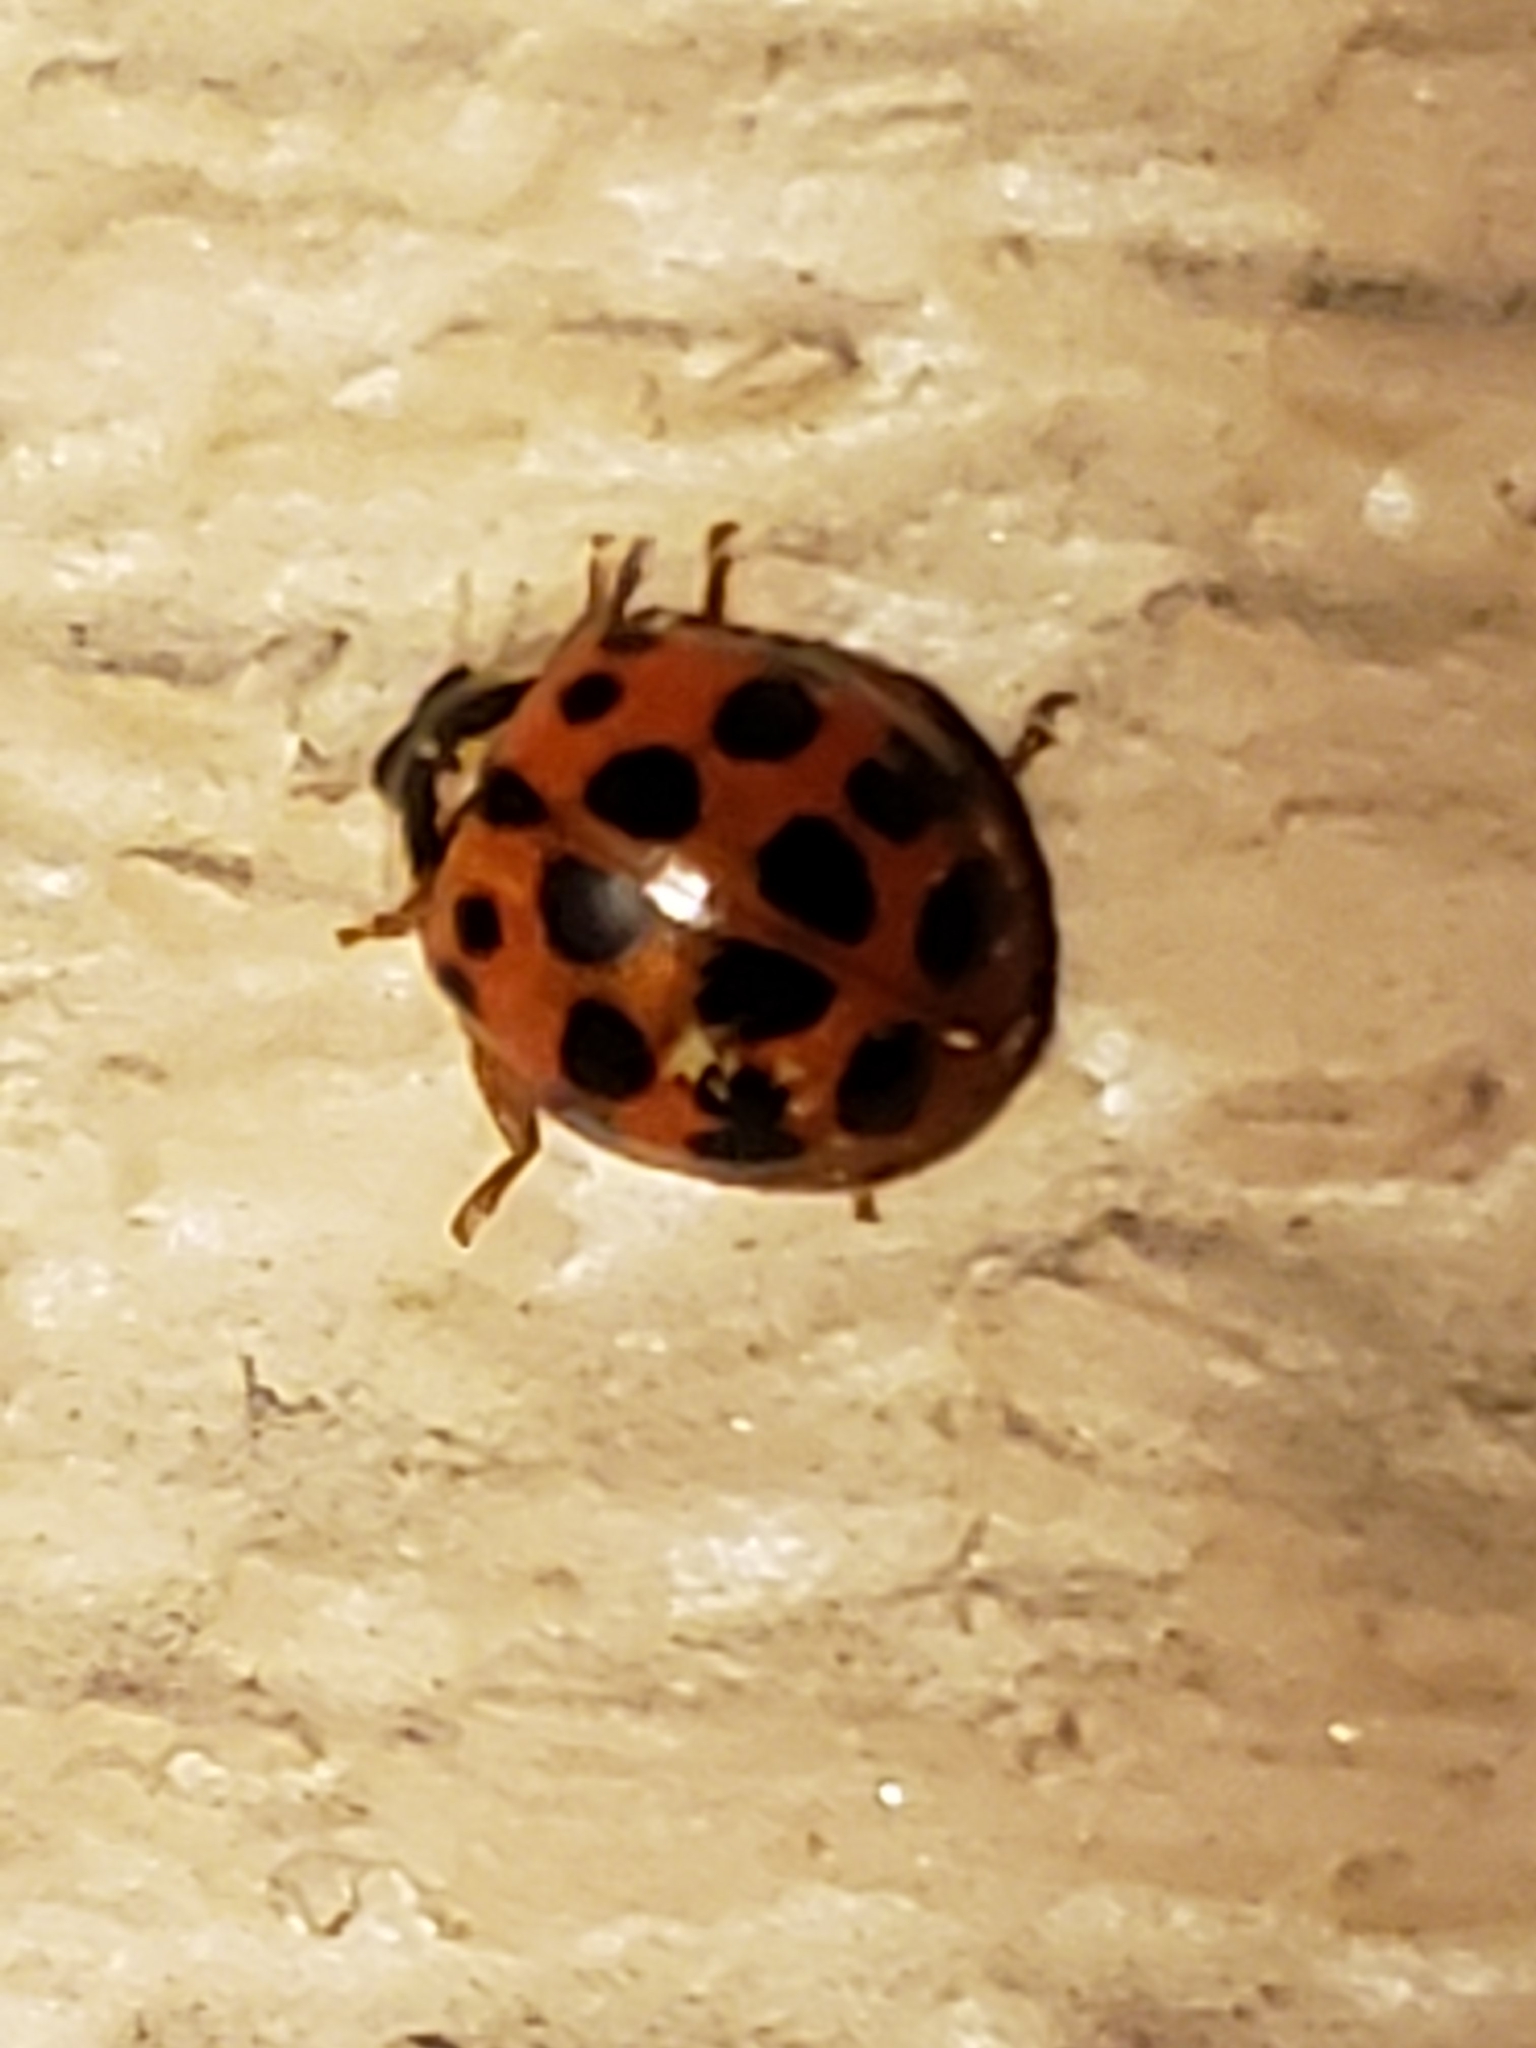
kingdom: Animalia
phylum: Arthropoda
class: Insecta
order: Coleoptera
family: Coccinellidae
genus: Harmonia
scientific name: Harmonia axyridis
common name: Harlequin ladybird
